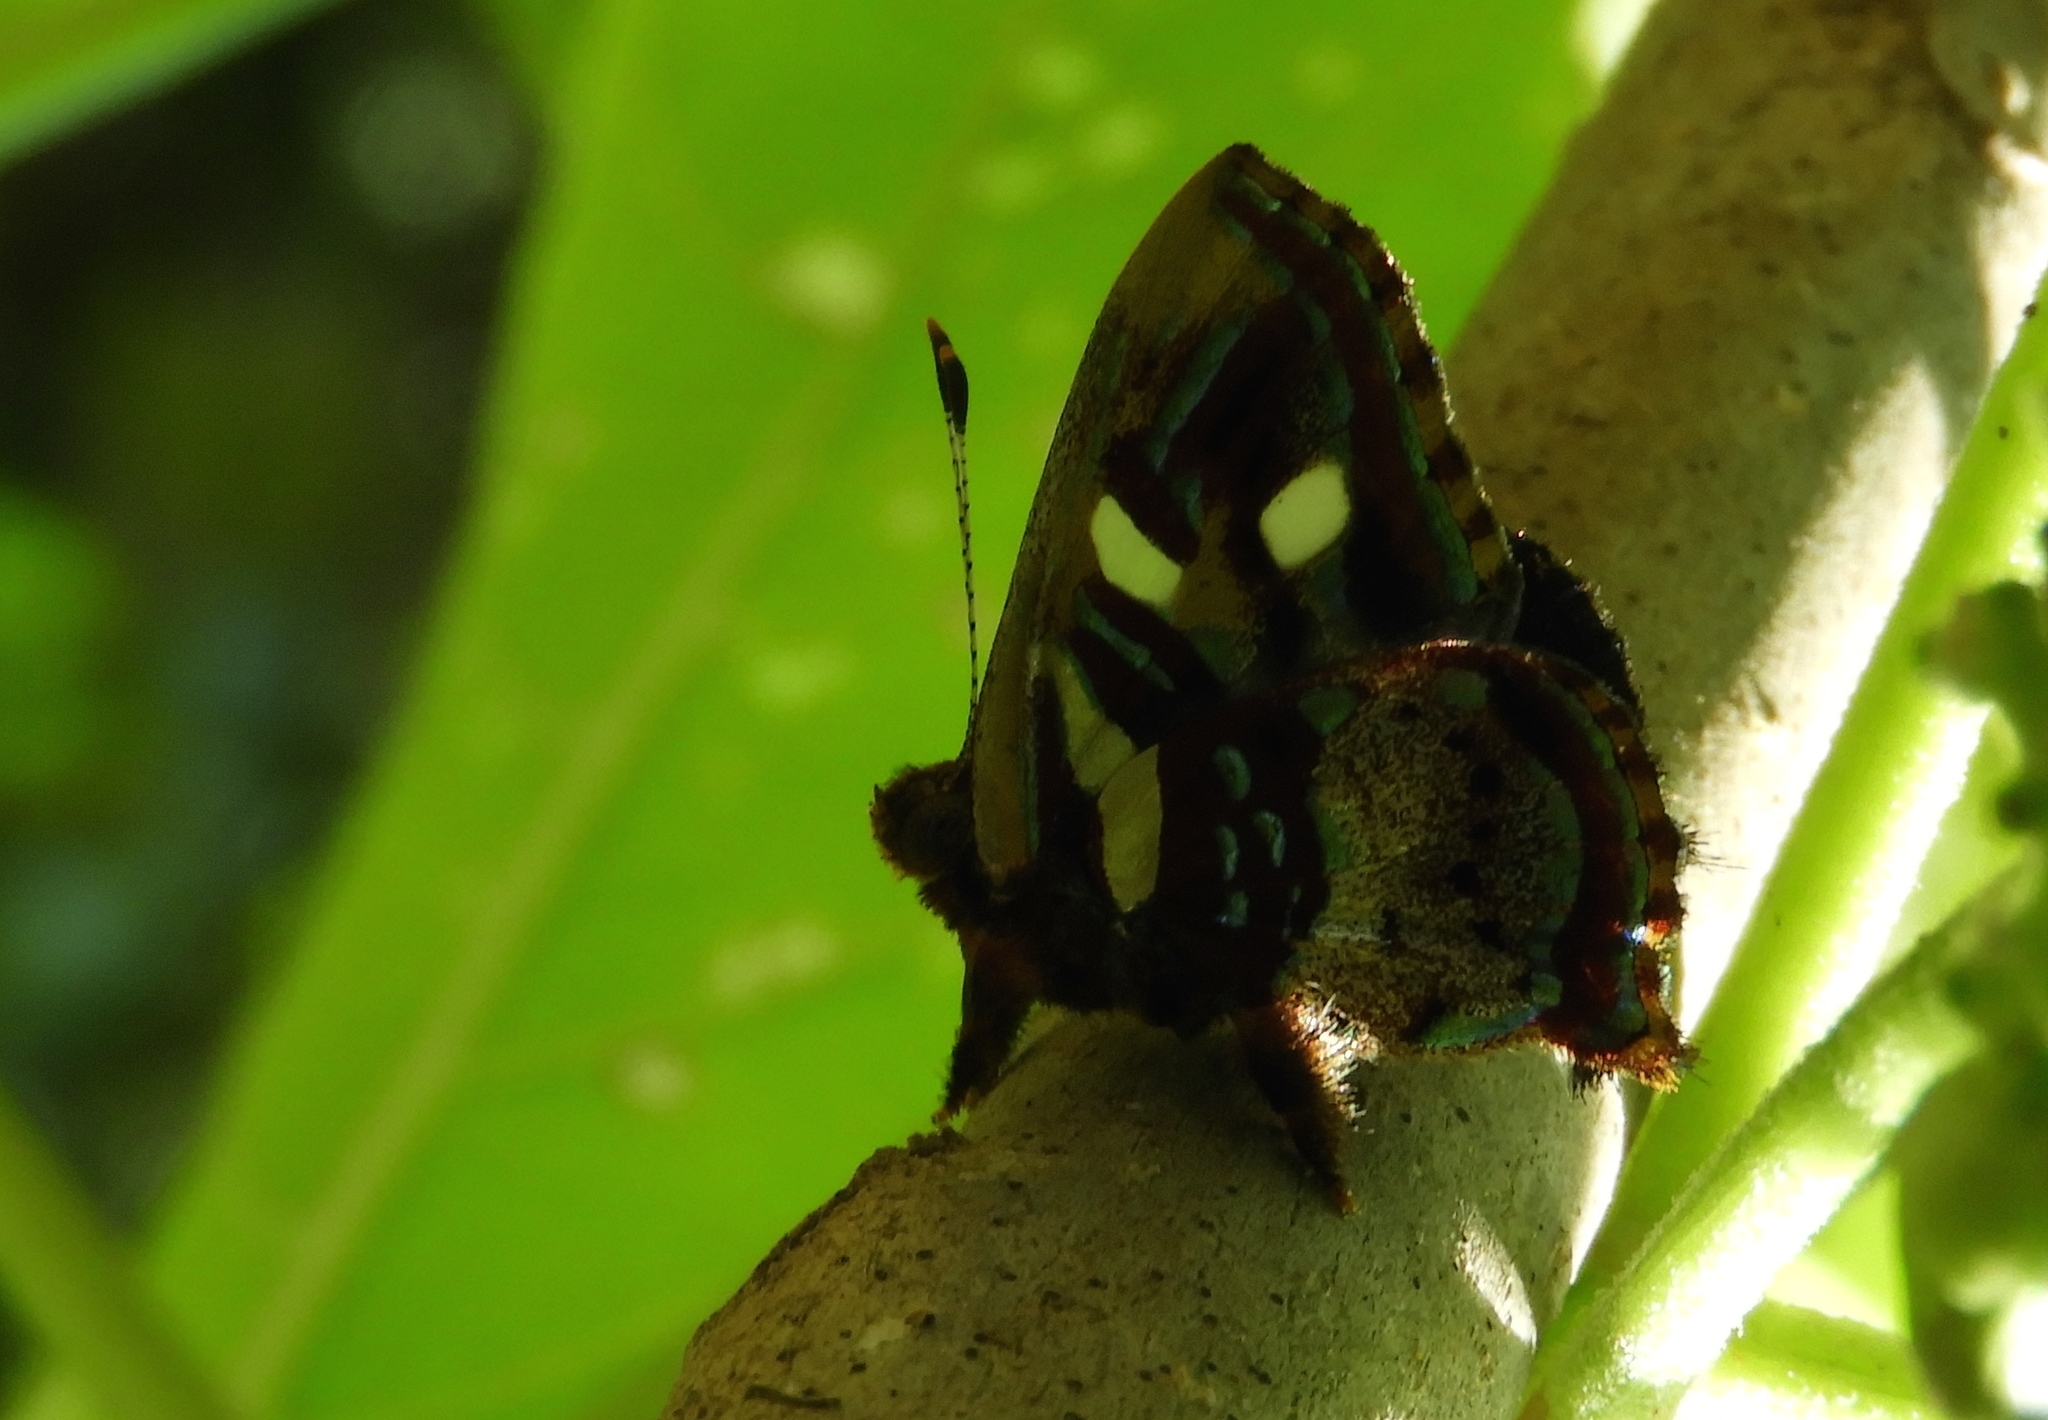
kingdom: Animalia
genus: Anteros
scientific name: Anteros carausius
